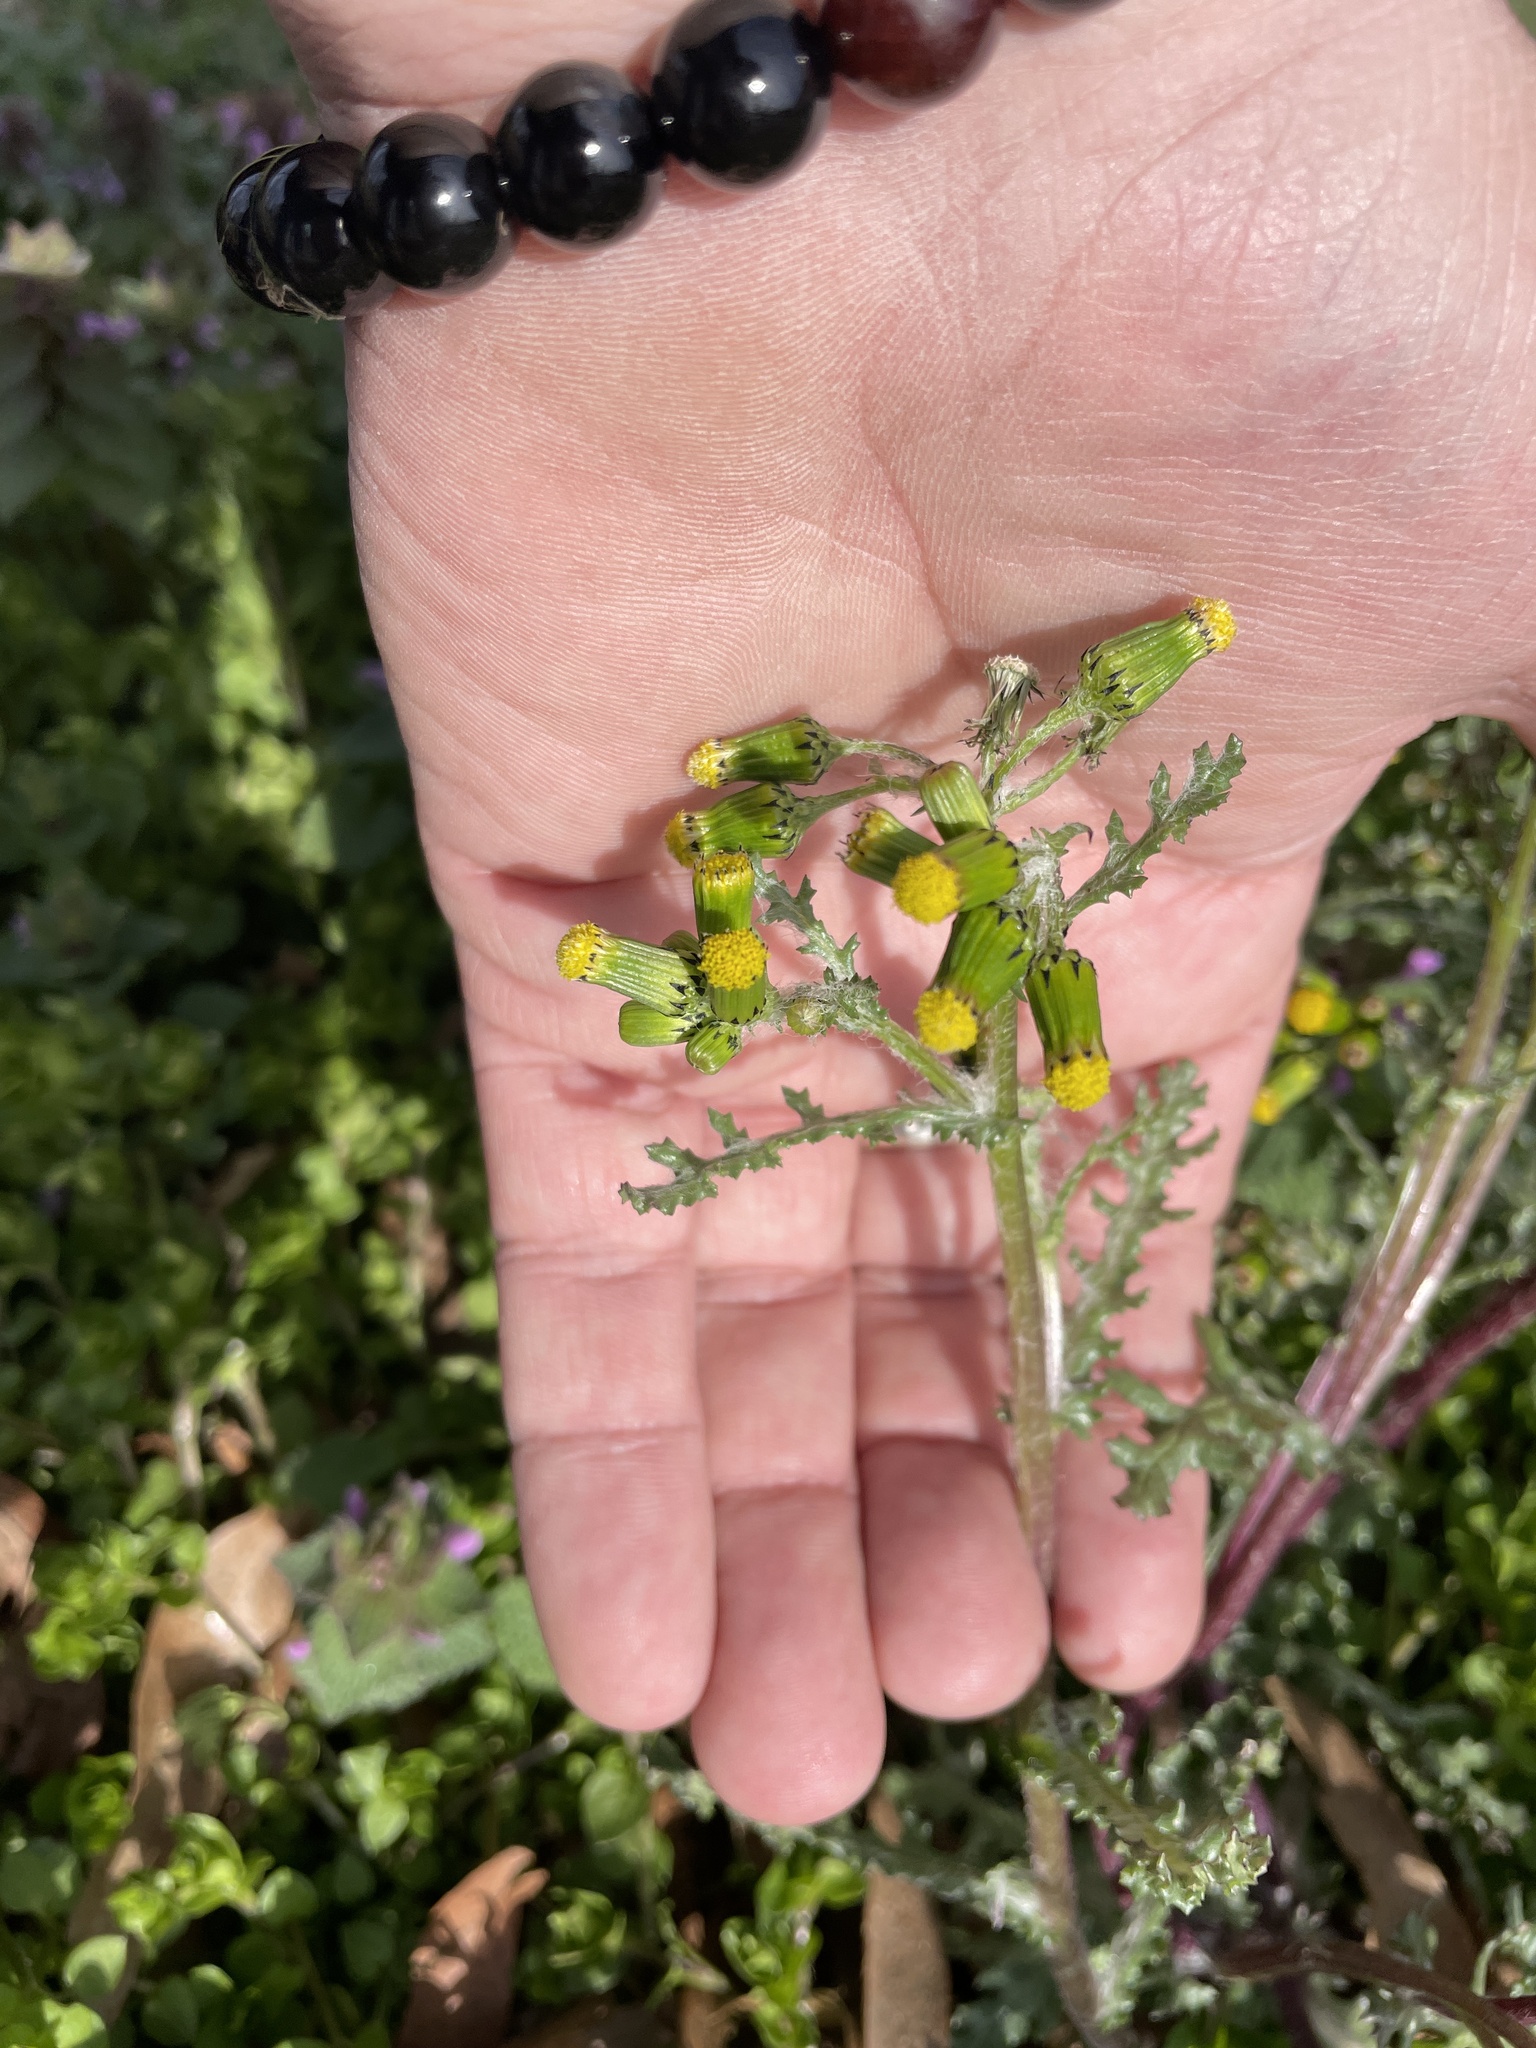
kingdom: Plantae
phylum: Tracheophyta
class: Magnoliopsida
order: Asterales
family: Asteraceae
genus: Senecio
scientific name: Senecio vulgaris
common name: Old-man-in-the-spring
